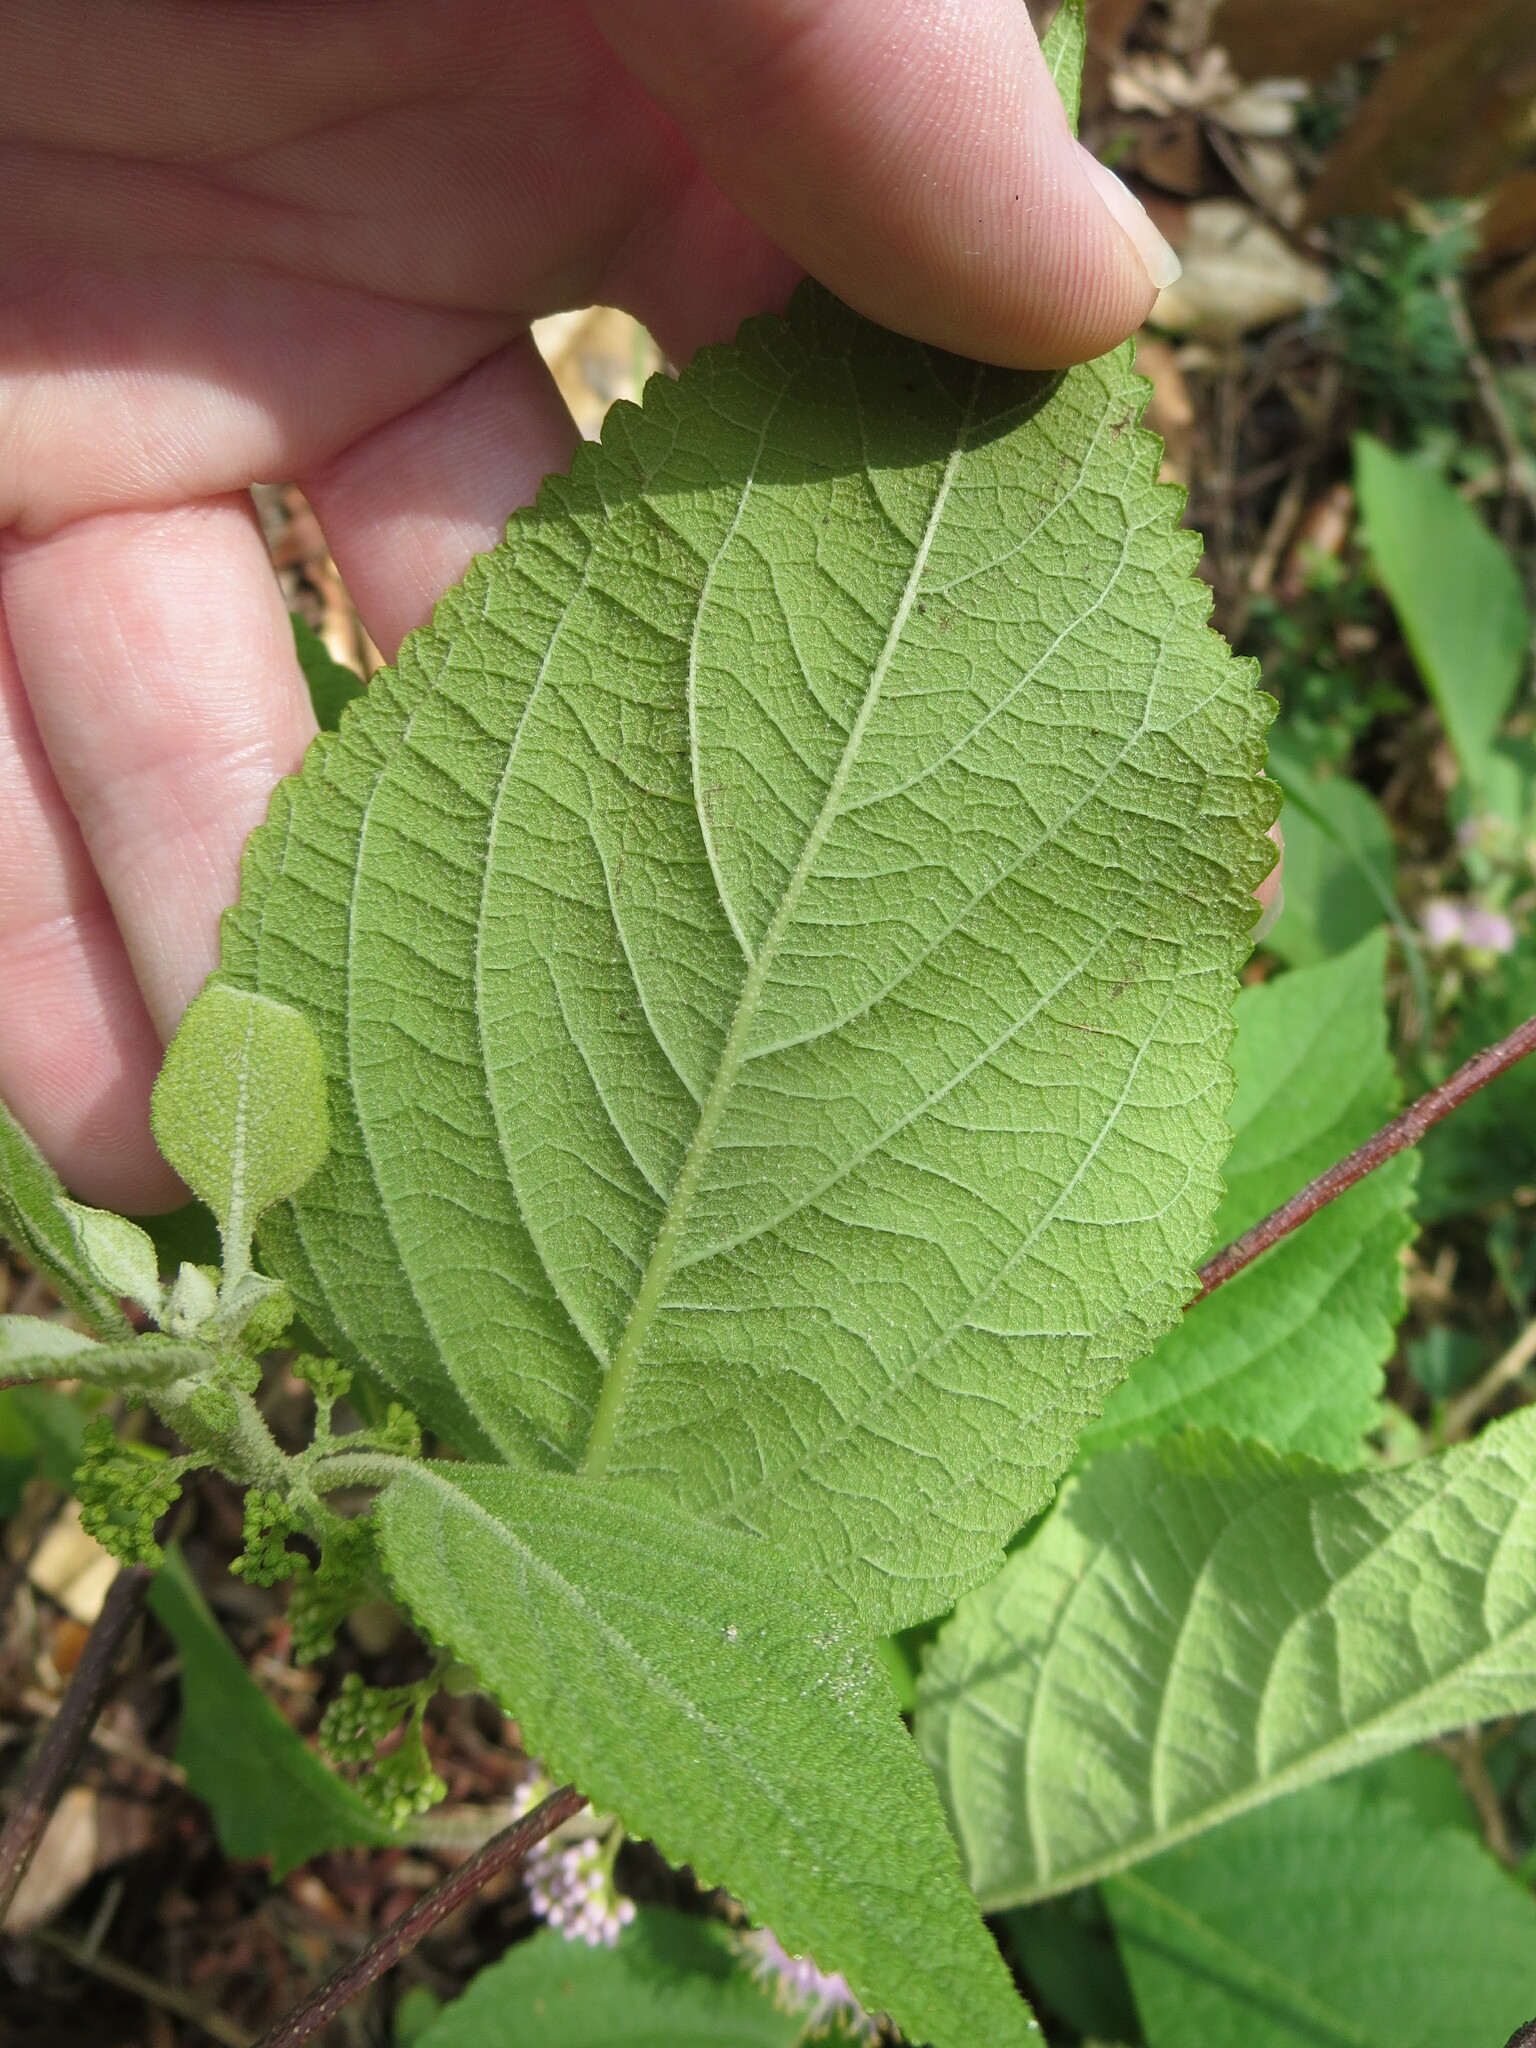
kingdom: Plantae
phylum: Tracheophyta
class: Magnoliopsida
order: Lamiales
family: Lamiaceae
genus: Callicarpa
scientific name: Callicarpa americana
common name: American beautyberry
